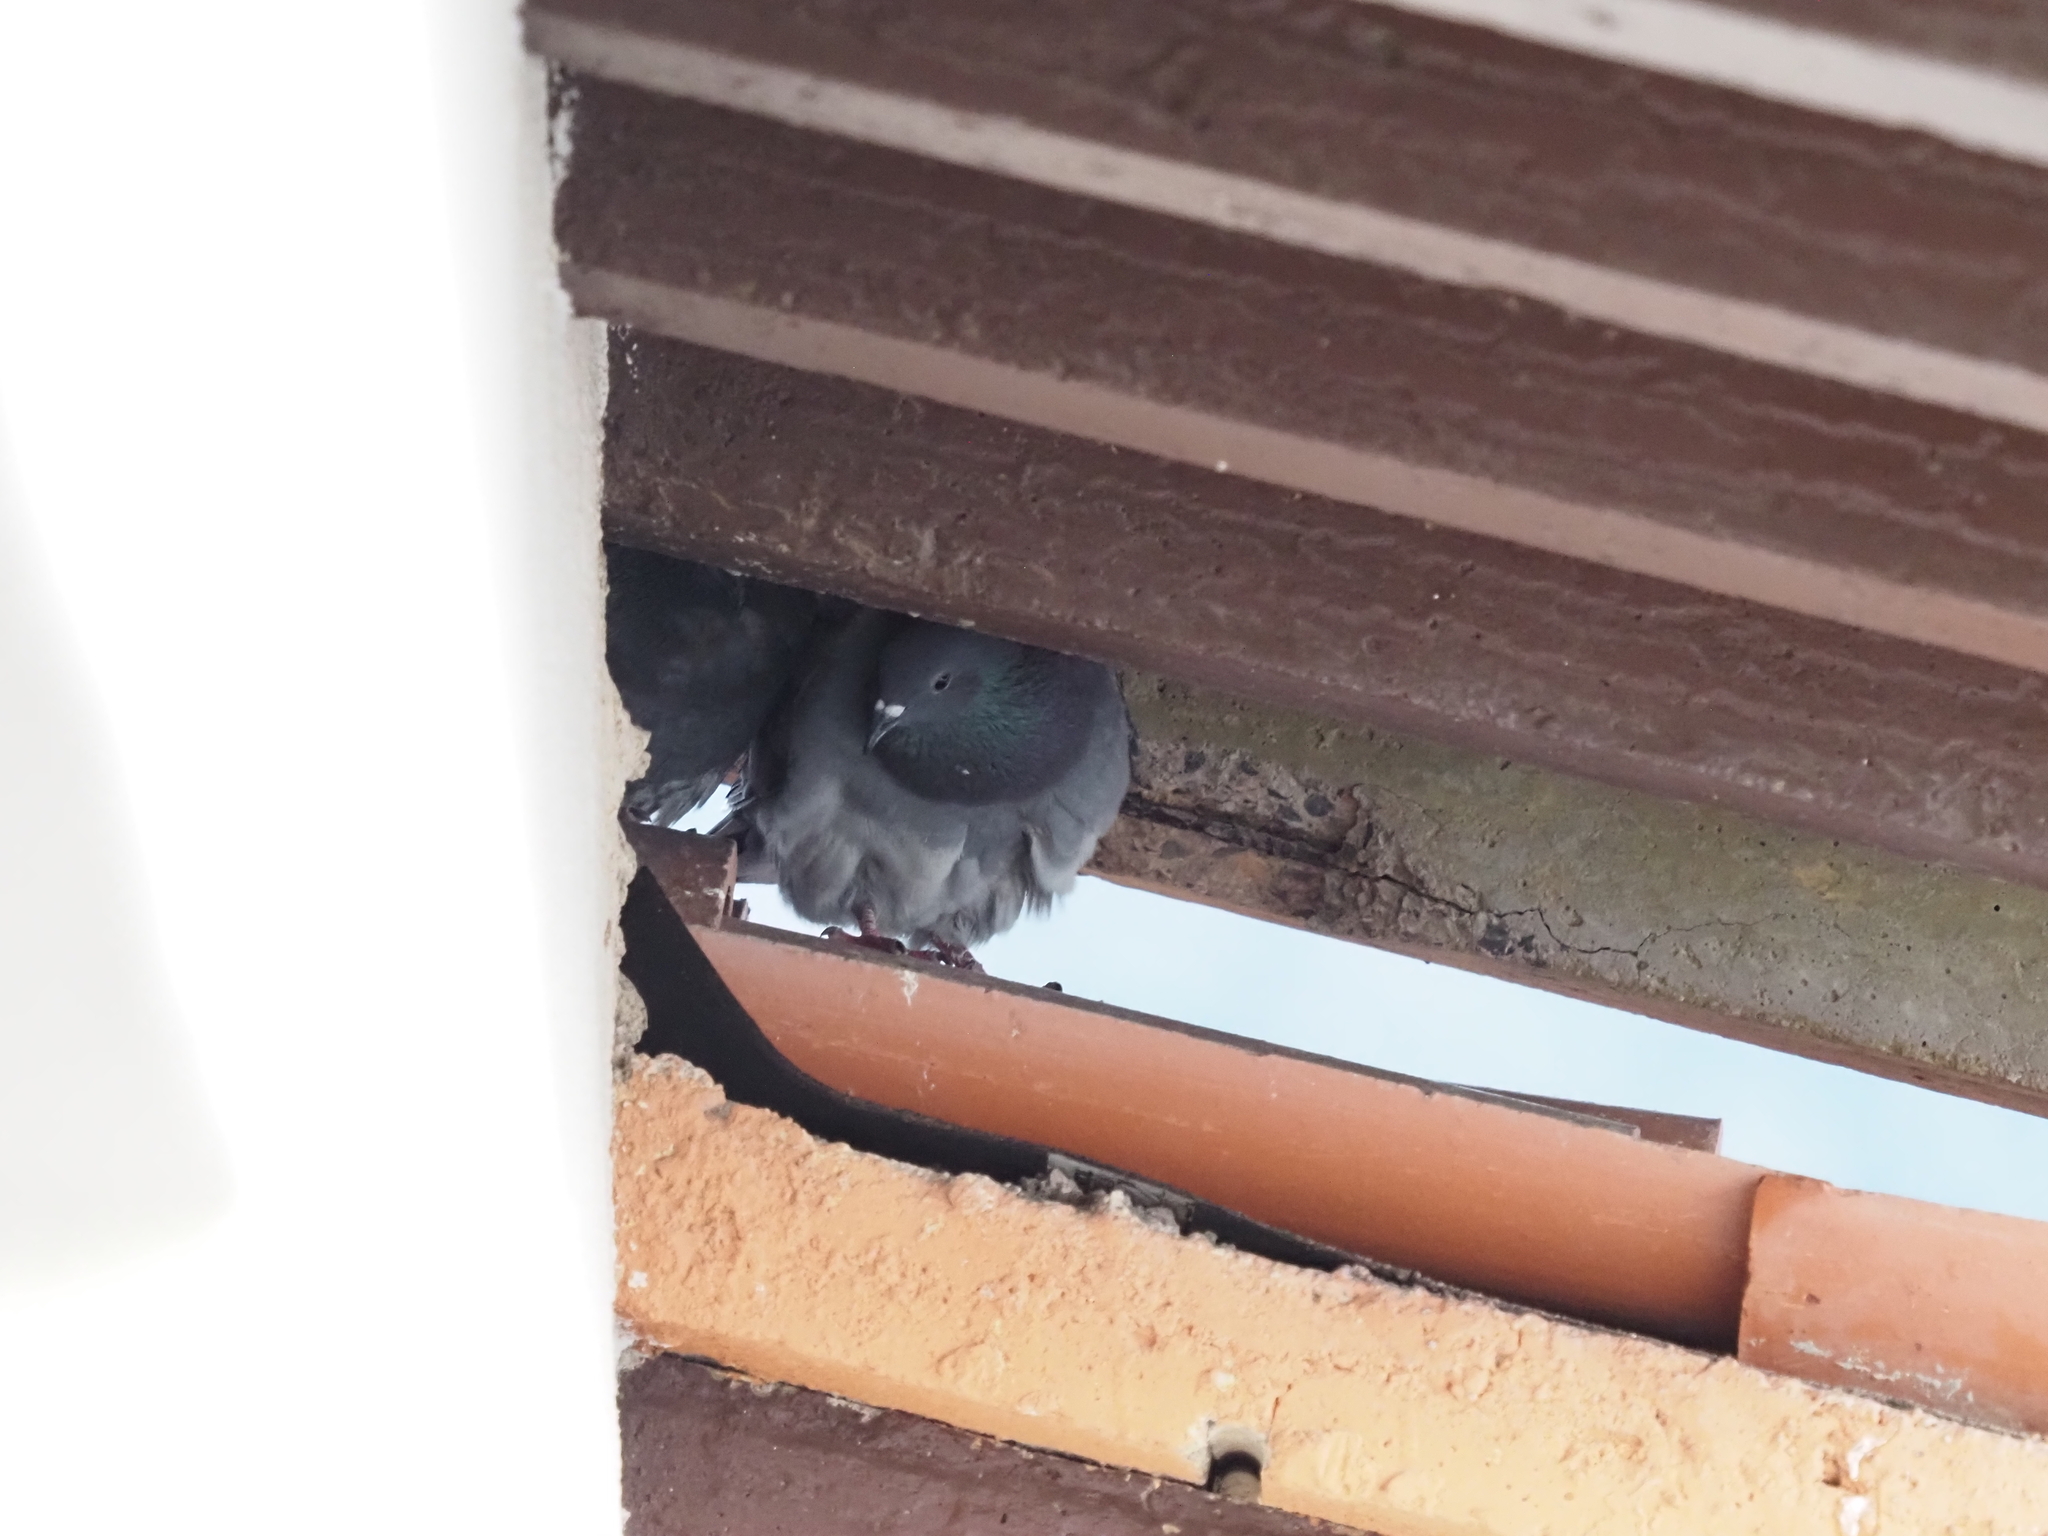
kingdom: Animalia
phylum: Chordata
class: Aves
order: Columbiformes
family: Columbidae
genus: Columba
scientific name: Columba livia
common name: Rock pigeon
